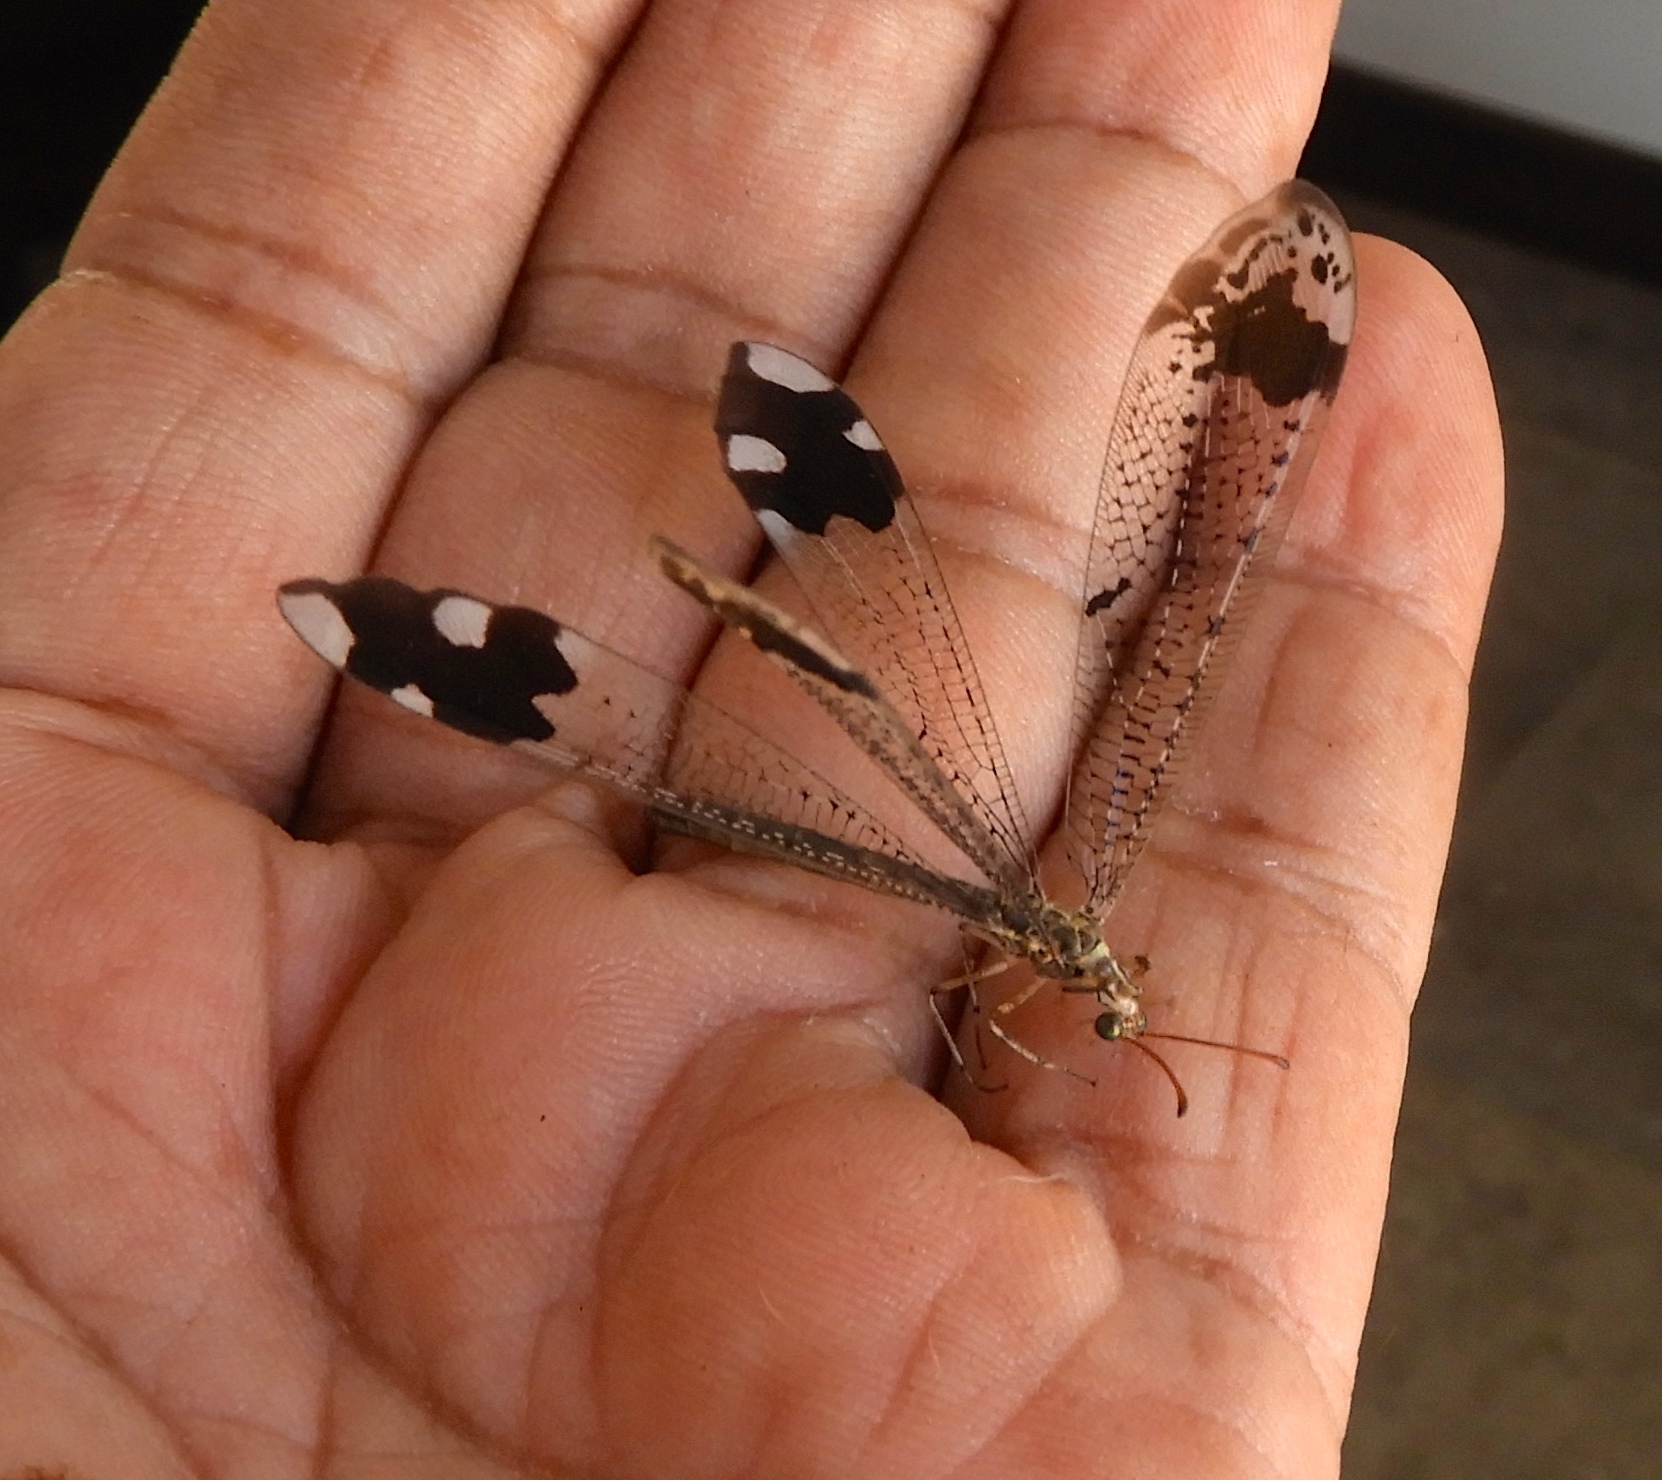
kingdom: Animalia
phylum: Arthropoda
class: Insecta
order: Neuroptera
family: Myrmeleontidae
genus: Glenurus
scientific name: Glenurus luniger
